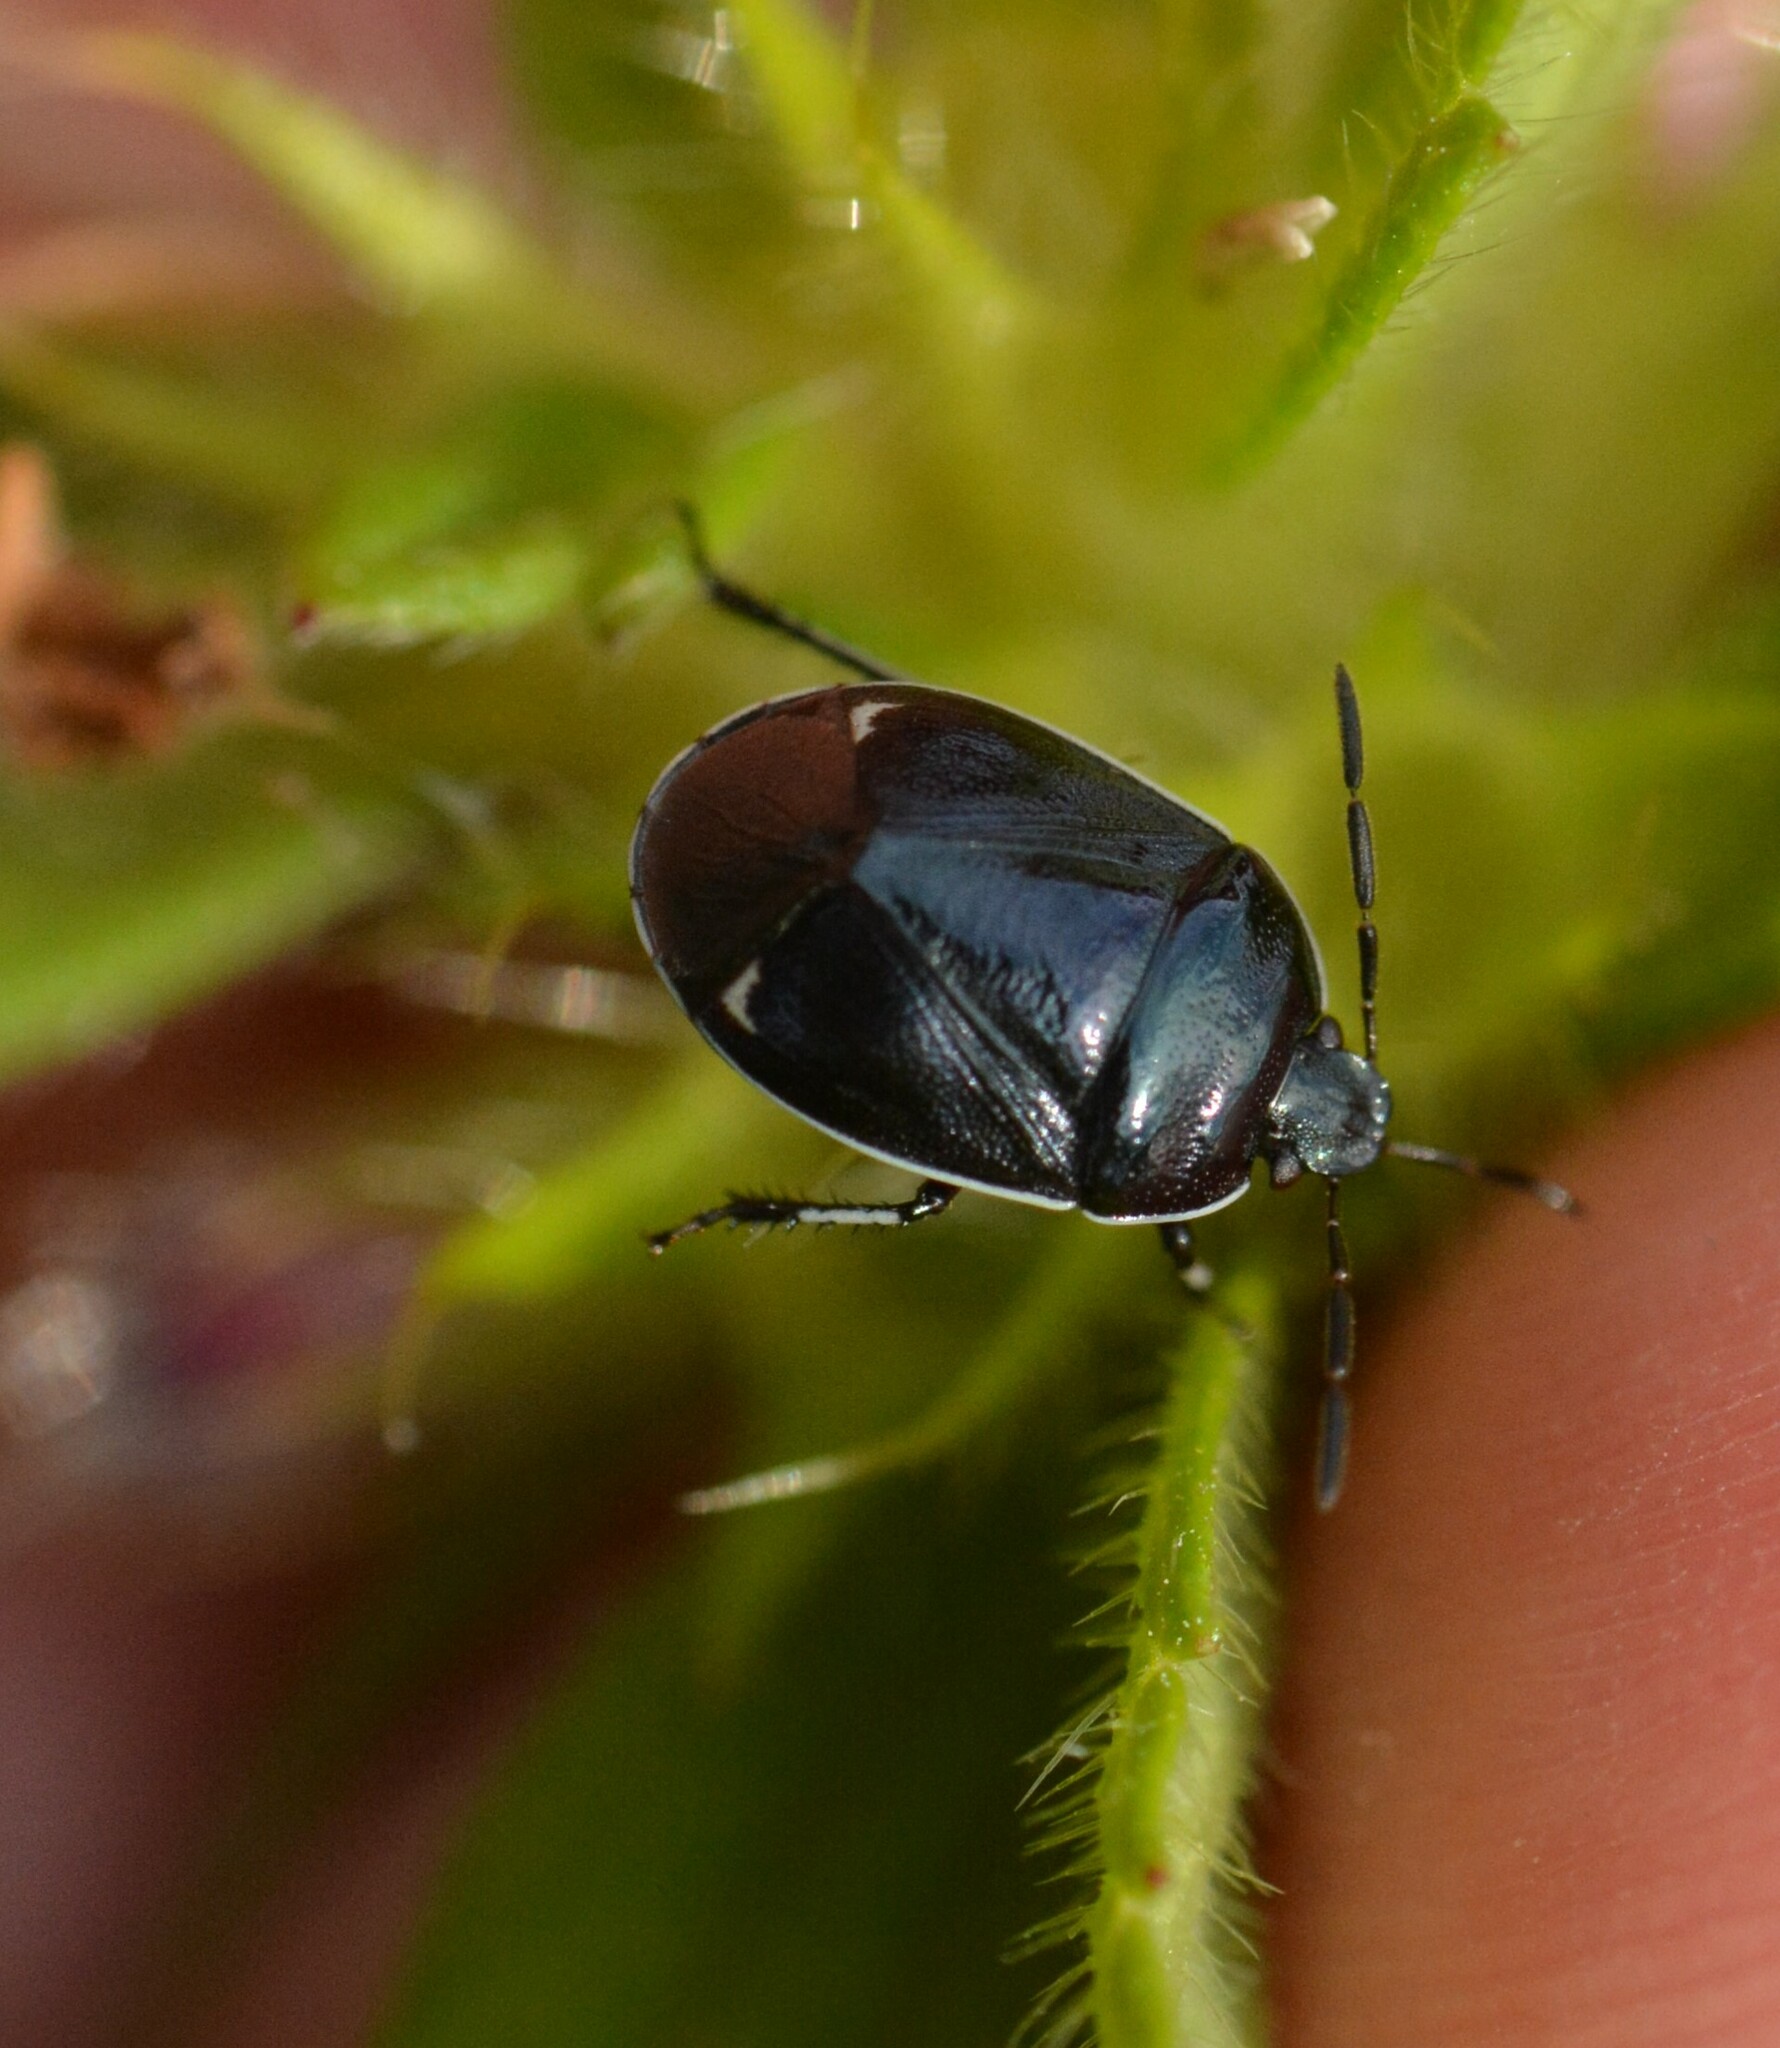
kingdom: Animalia
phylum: Arthropoda
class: Insecta
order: Hemiptera
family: Cydnidae
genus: Sehirus
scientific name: Sehirus cinctus
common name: White-margined burrower bug
